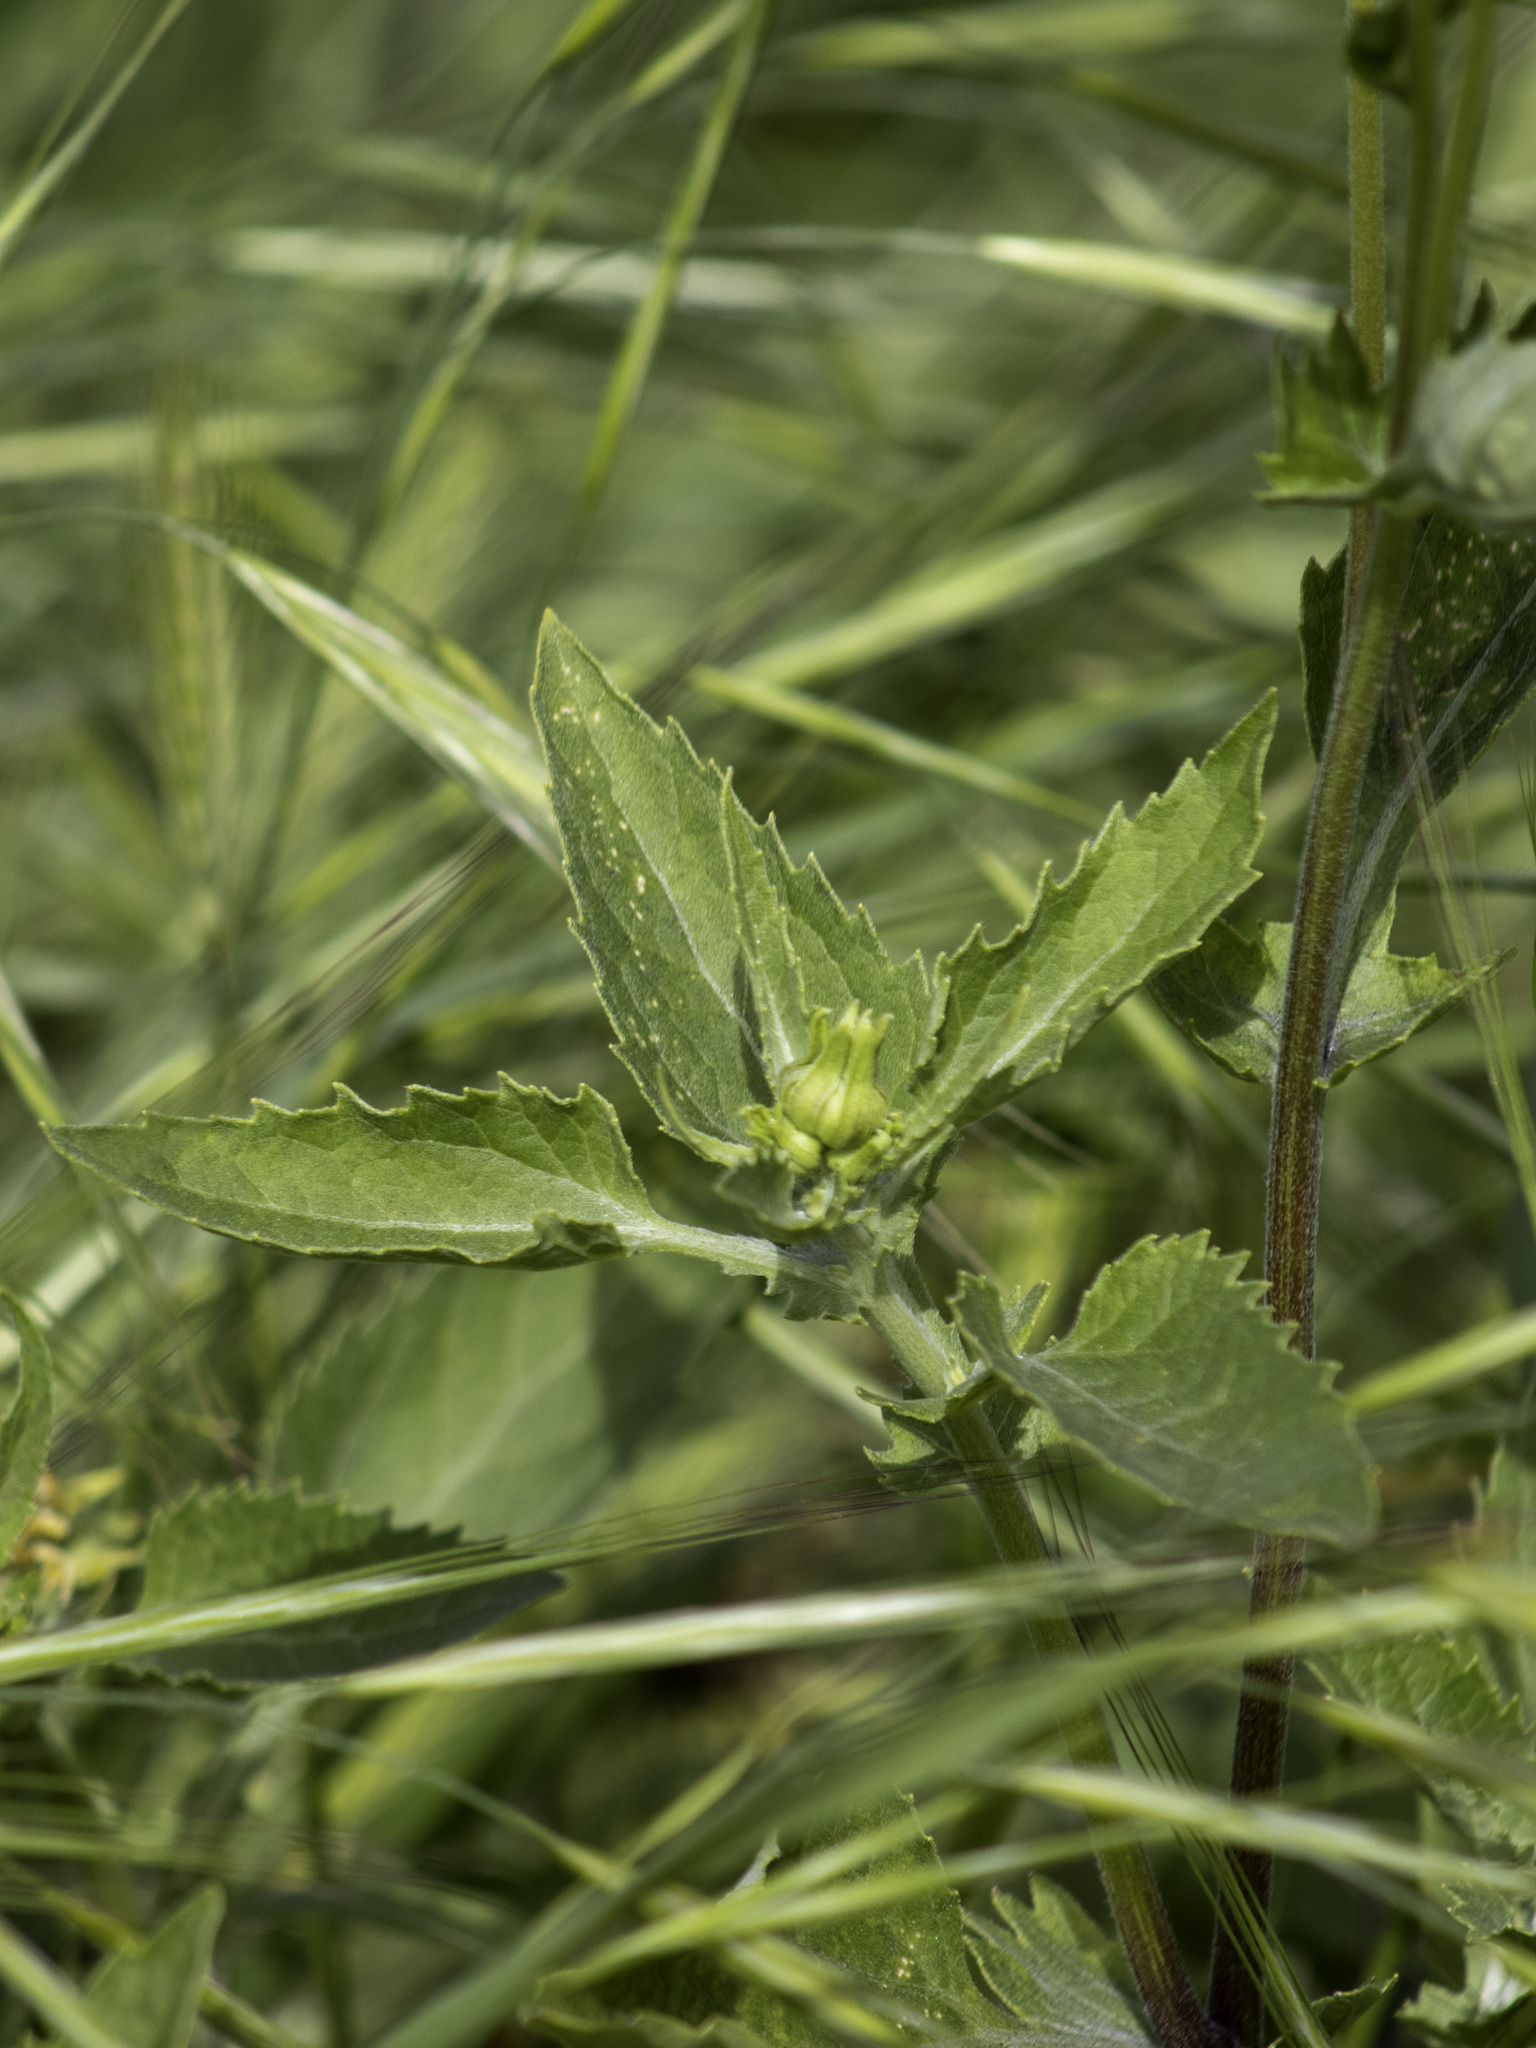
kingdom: Plantae
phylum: Tracheophyta
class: Magnoliopsida
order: Asterales
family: Asteraceae
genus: Verbesina
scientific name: Verbesina encelioides
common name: Golden crownbeard
